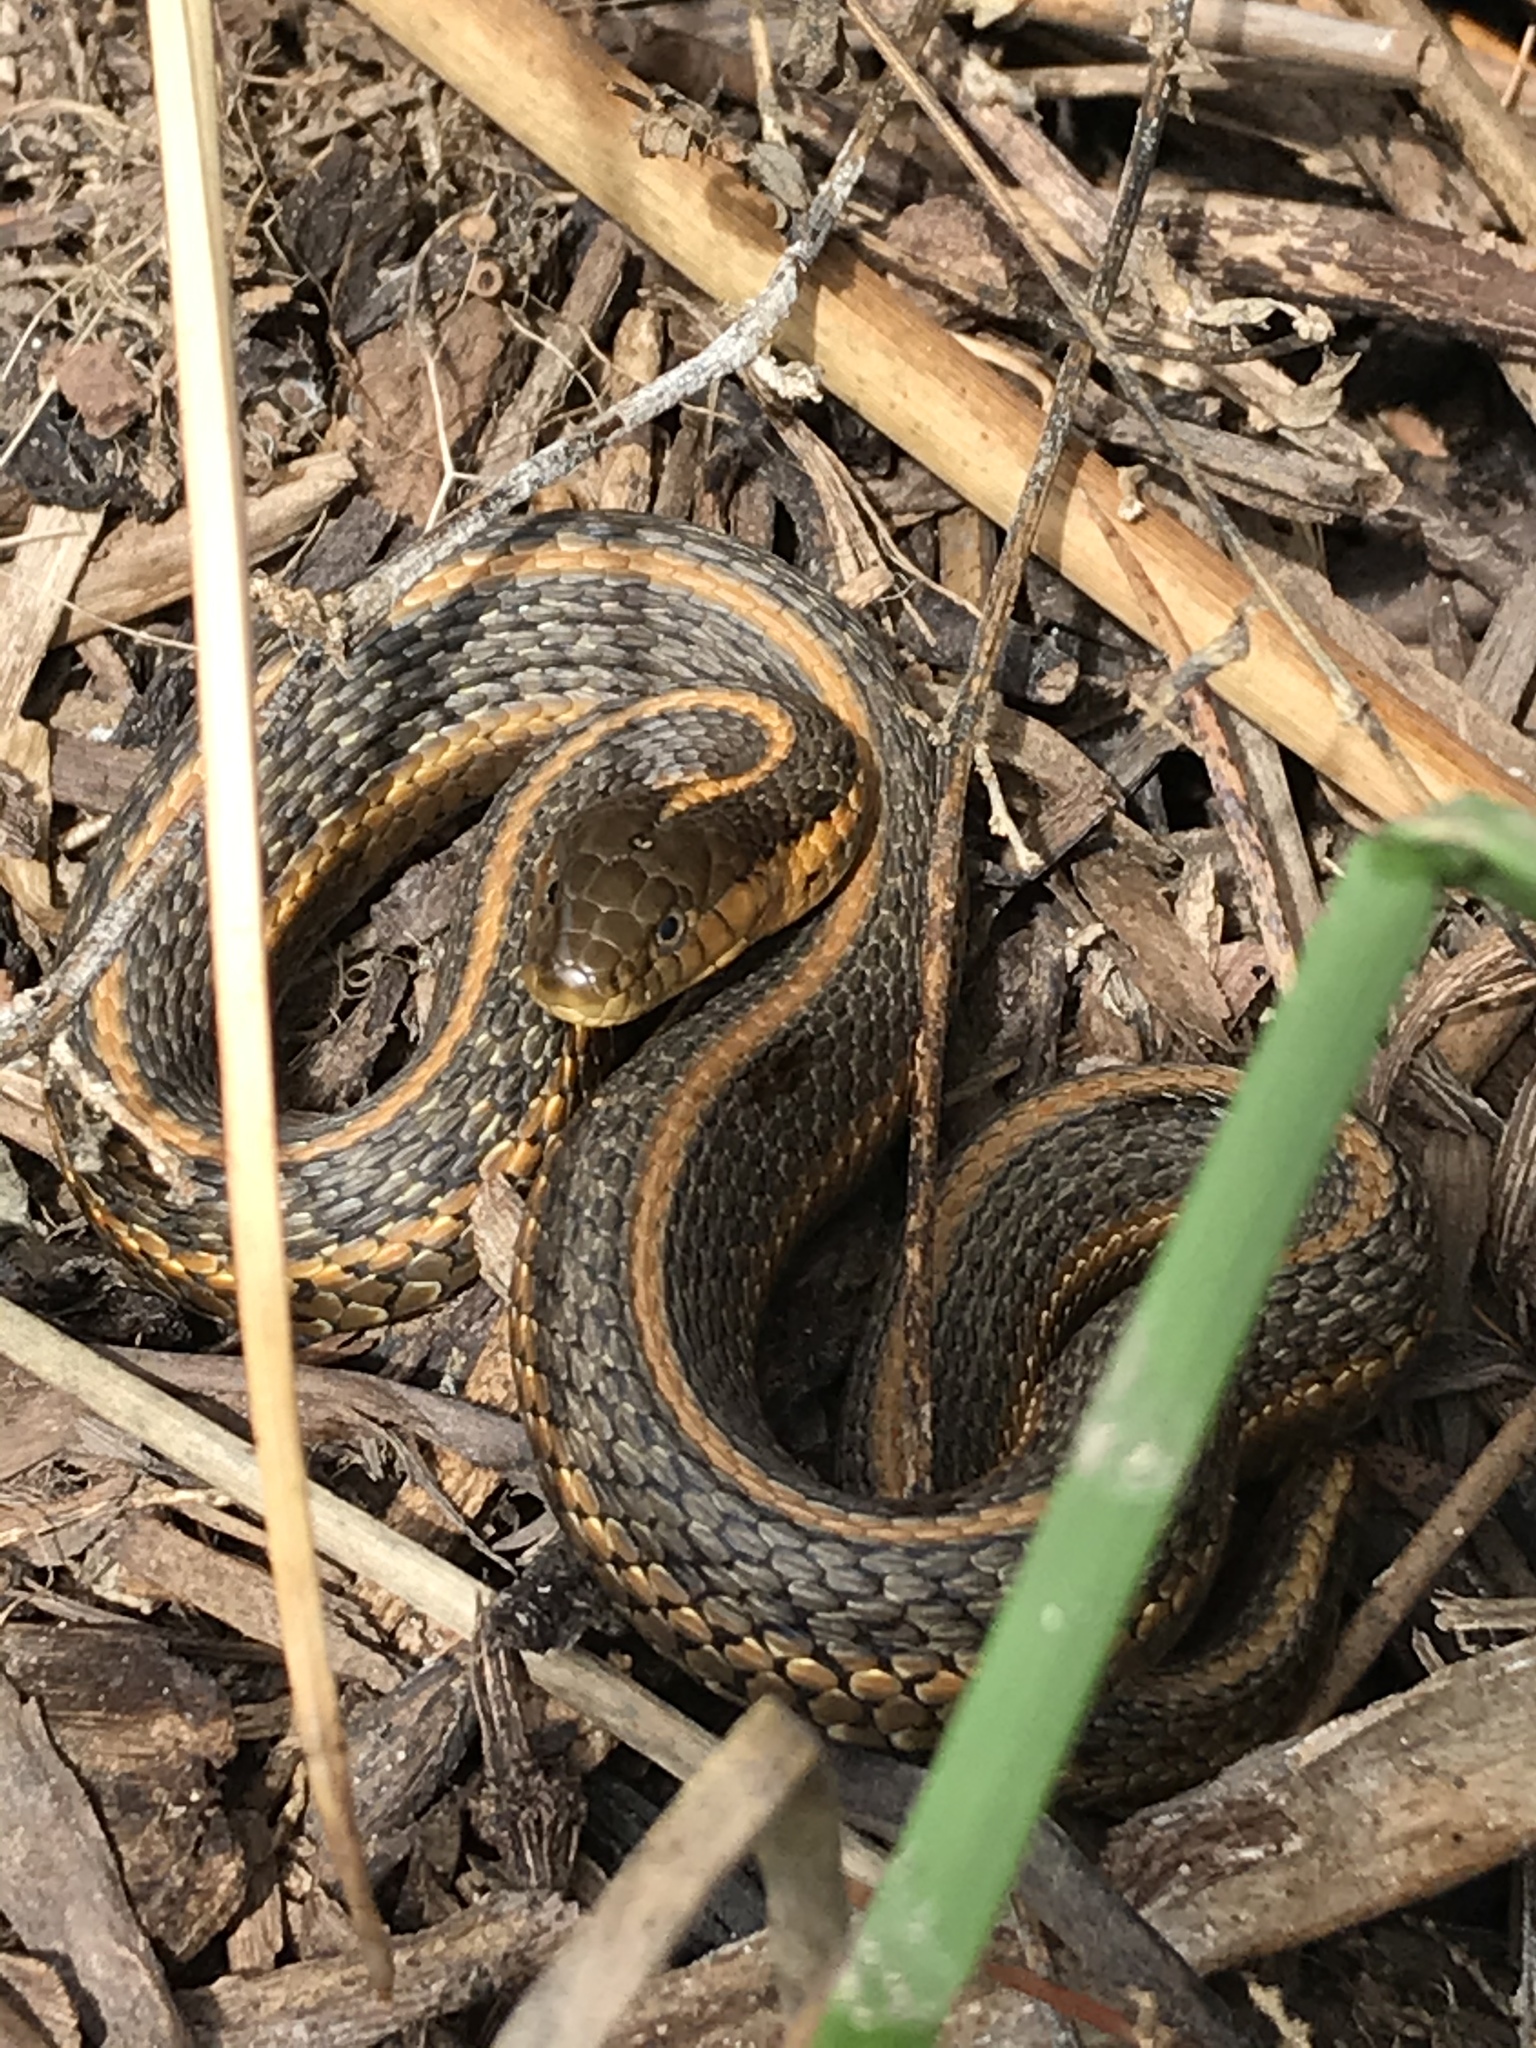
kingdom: Animalia
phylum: Chordata
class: Squamata
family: Colubridae
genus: Thamnophis
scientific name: Thamnophis atratus
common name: Pacific coast aquatic garter snake
